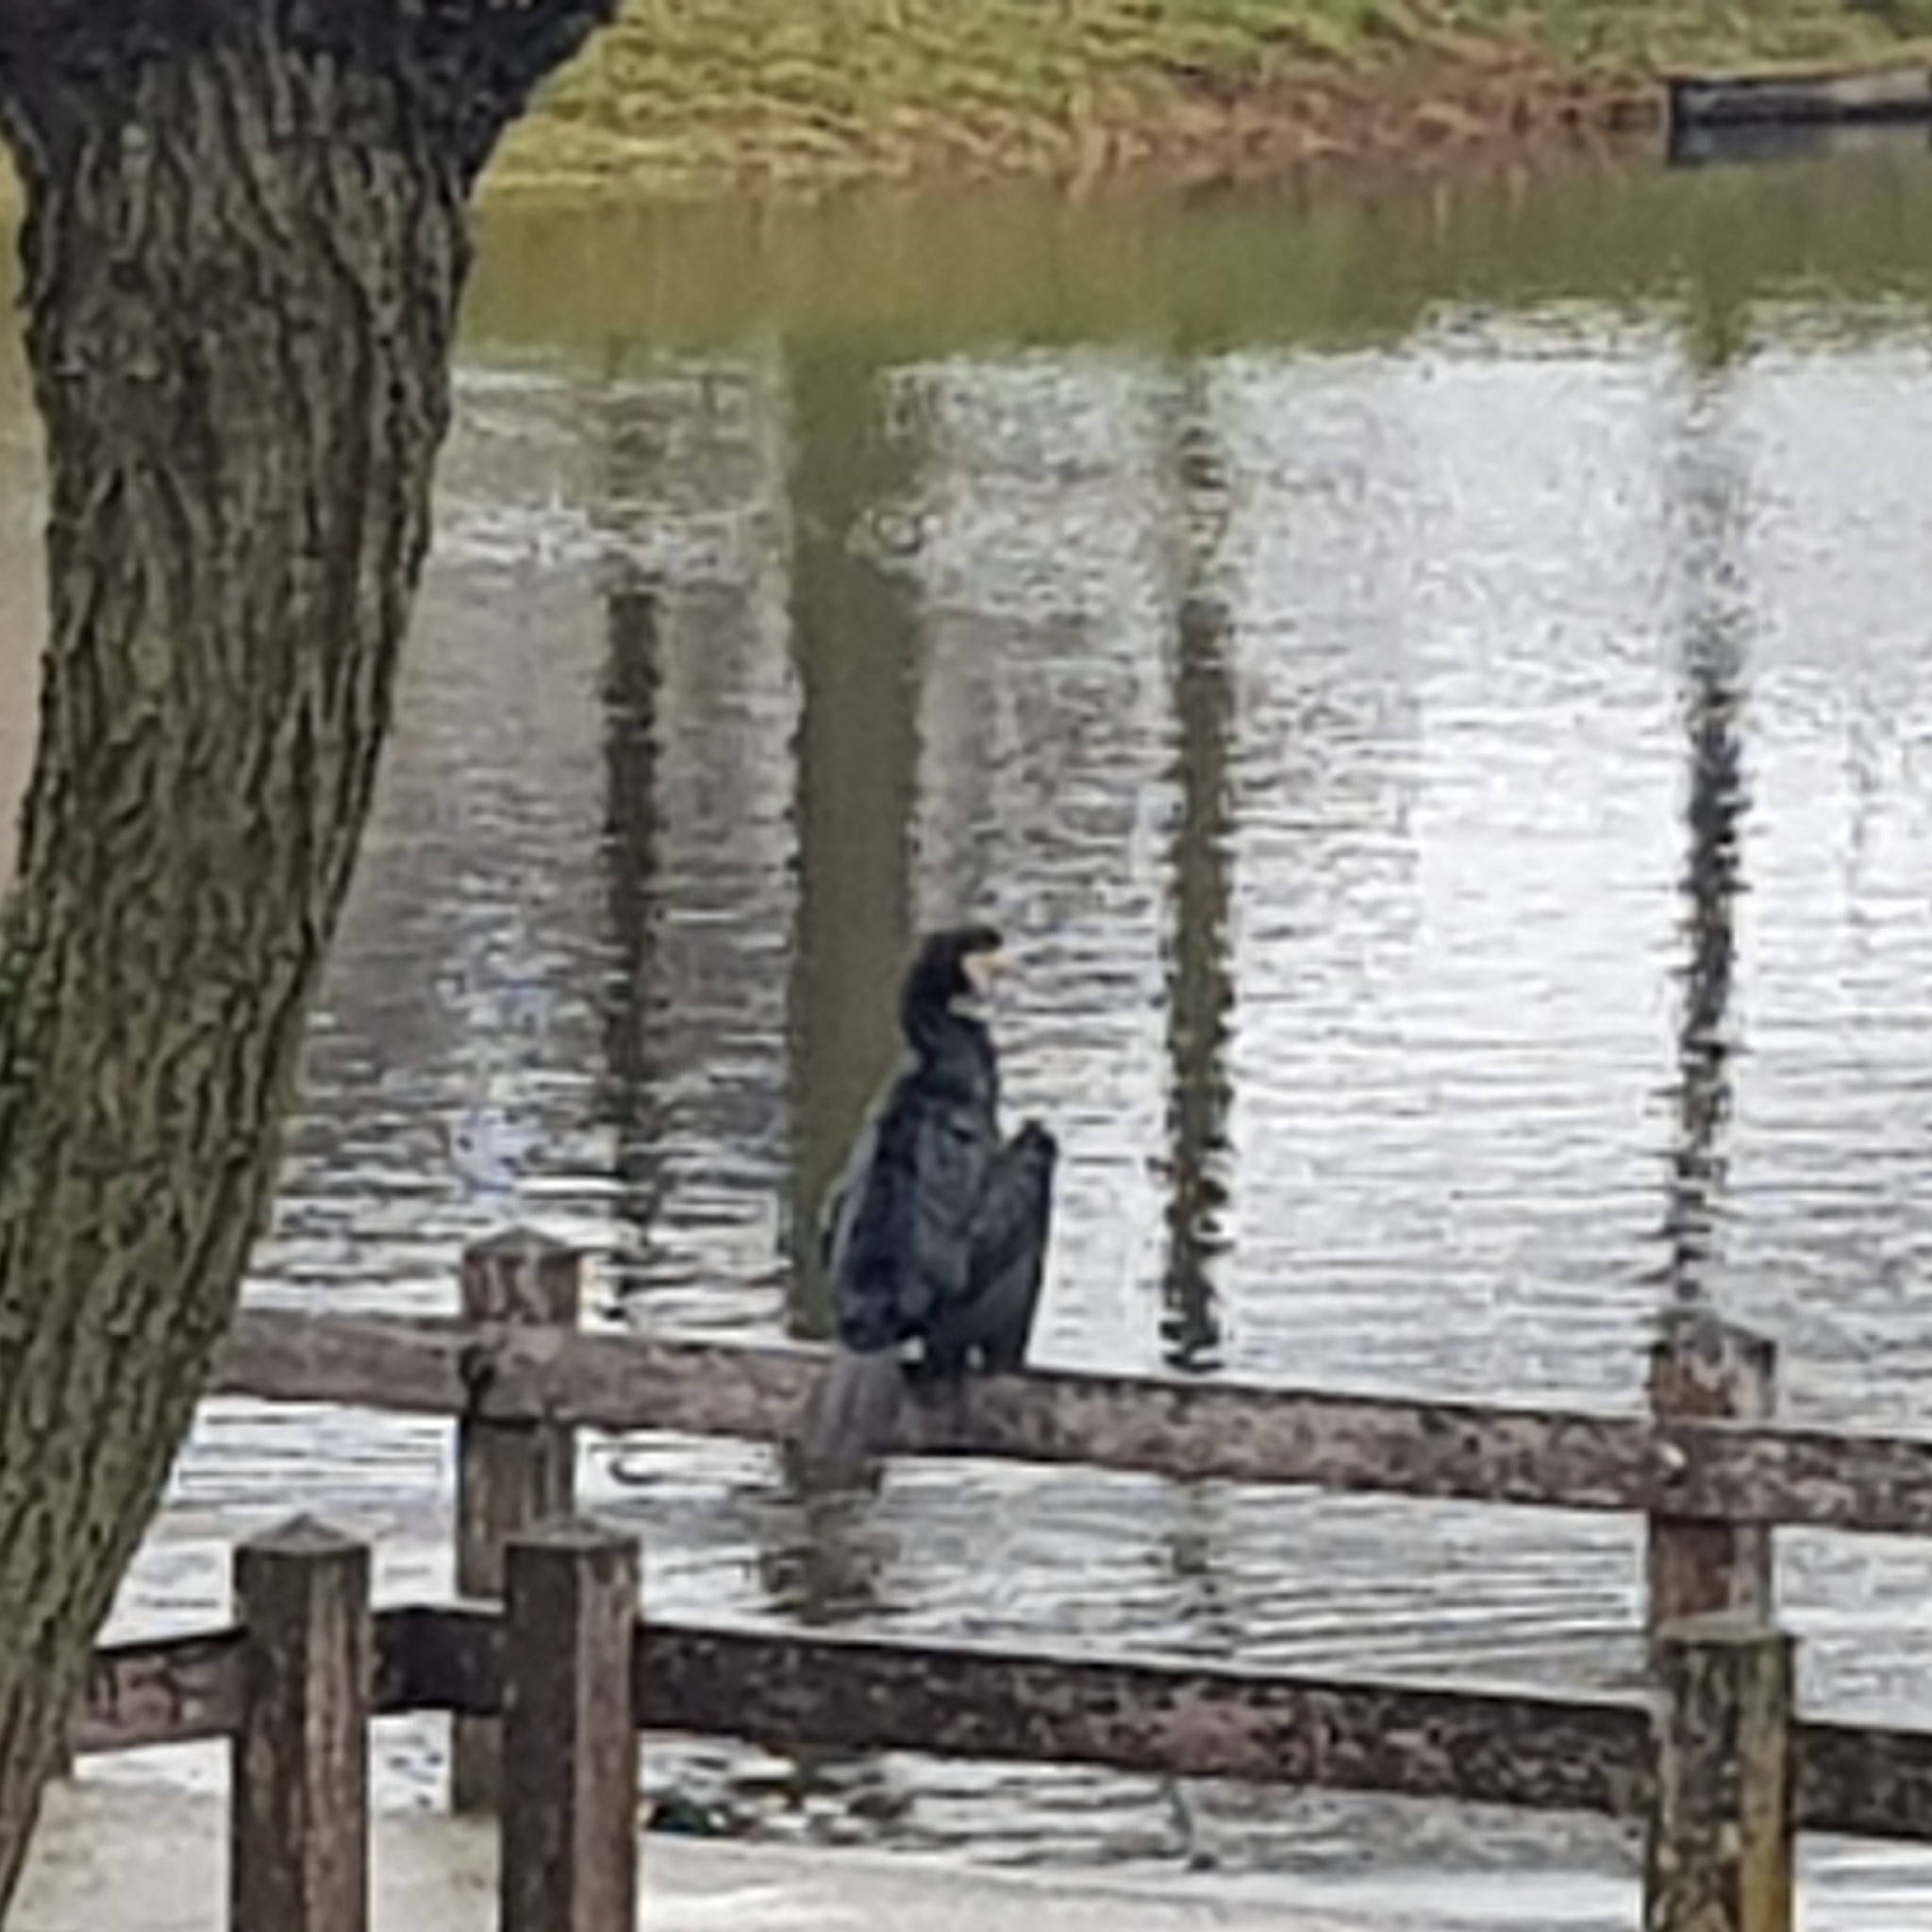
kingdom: Animalia
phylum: Chordata
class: Aves
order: Suliformes
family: Phalacrocoracidae
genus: Phalacrocorax
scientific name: Phalacrocorax carbo
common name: Great cormorant
